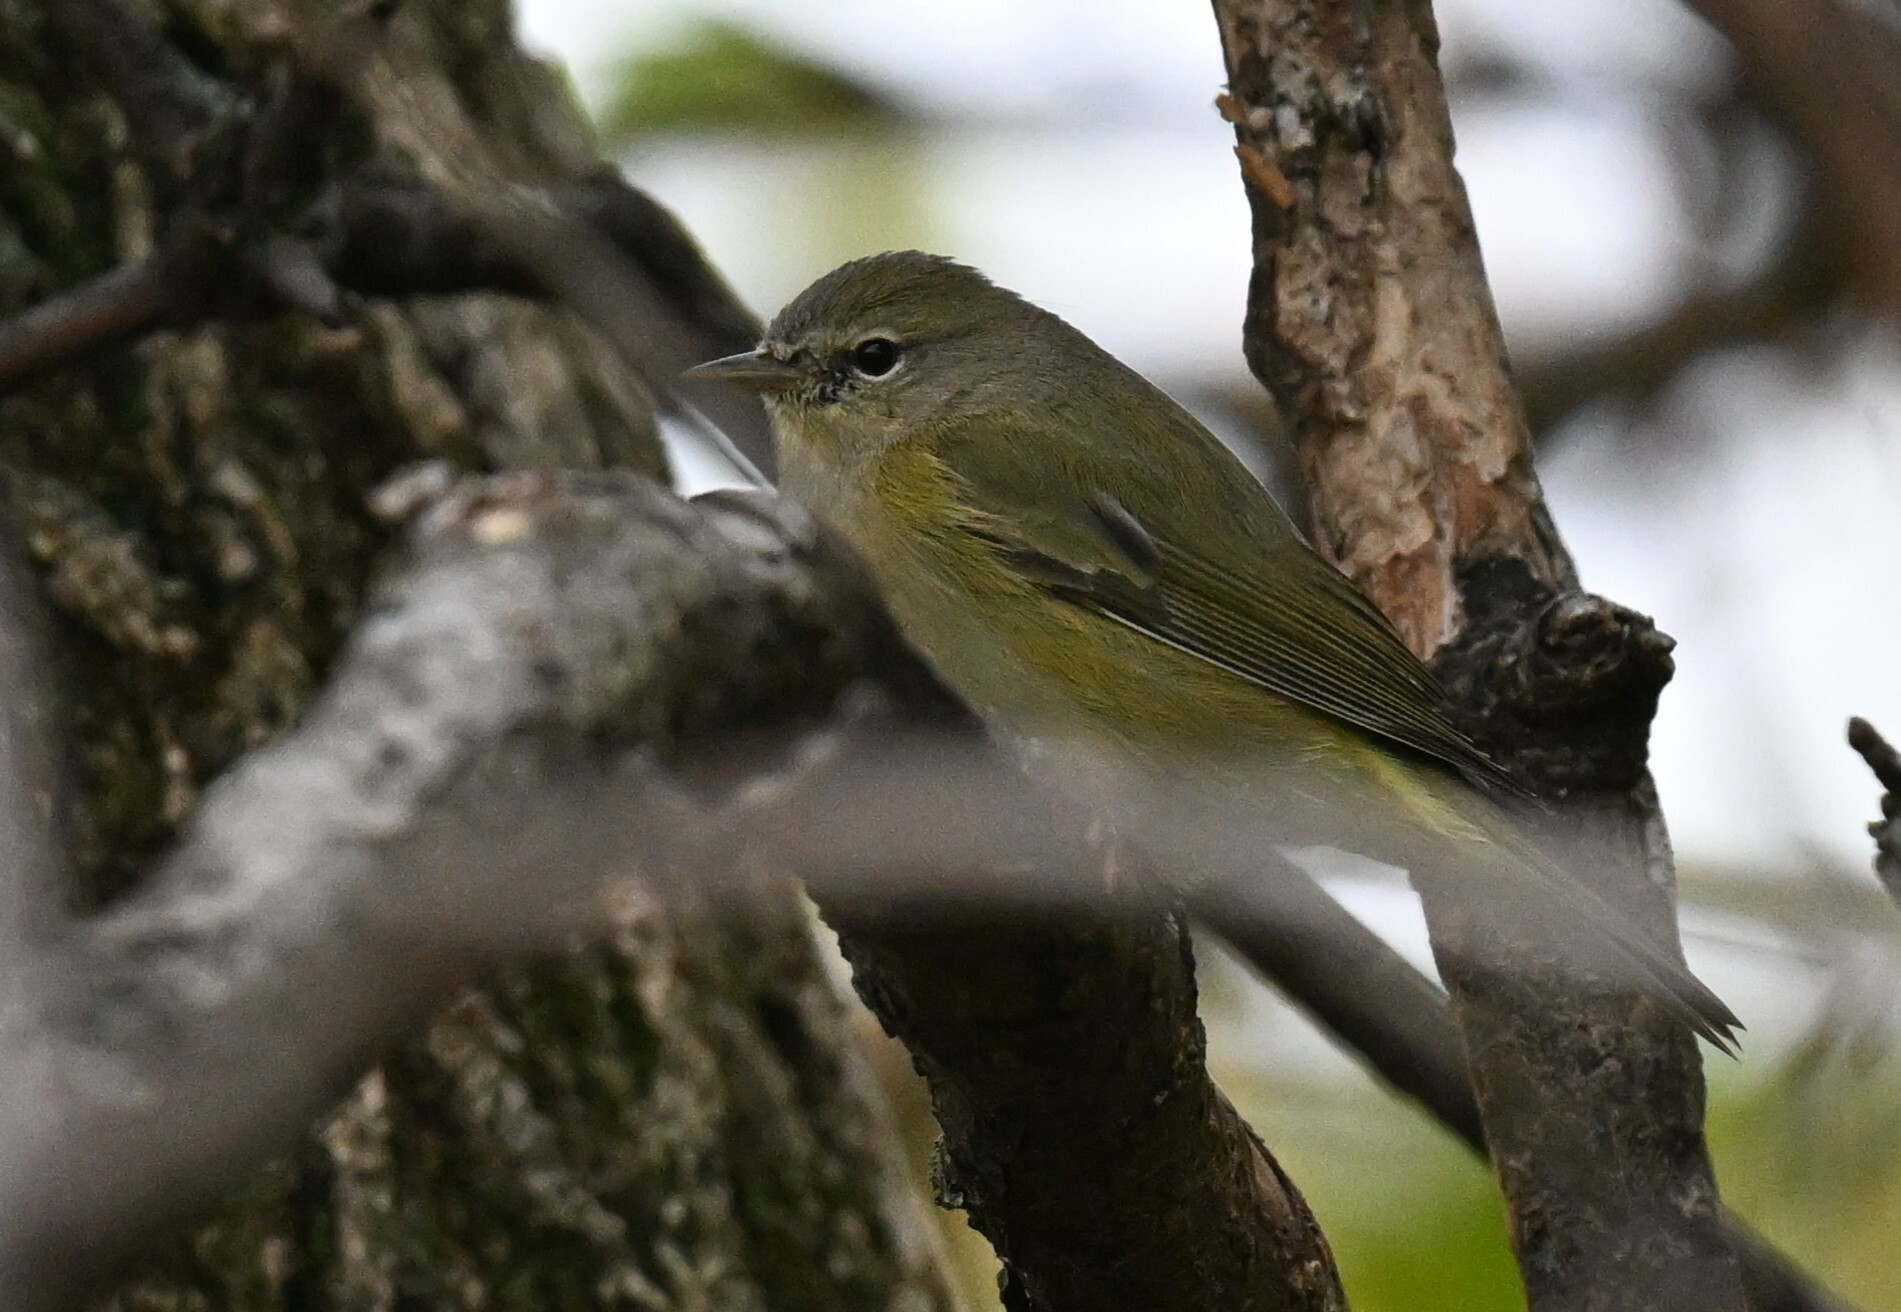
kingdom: Animalia
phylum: Chordata
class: Aves
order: Passeriformes
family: Parulidae
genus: Leiothlypis
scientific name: Leiothlypis celata
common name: Orange-crowned warbler
